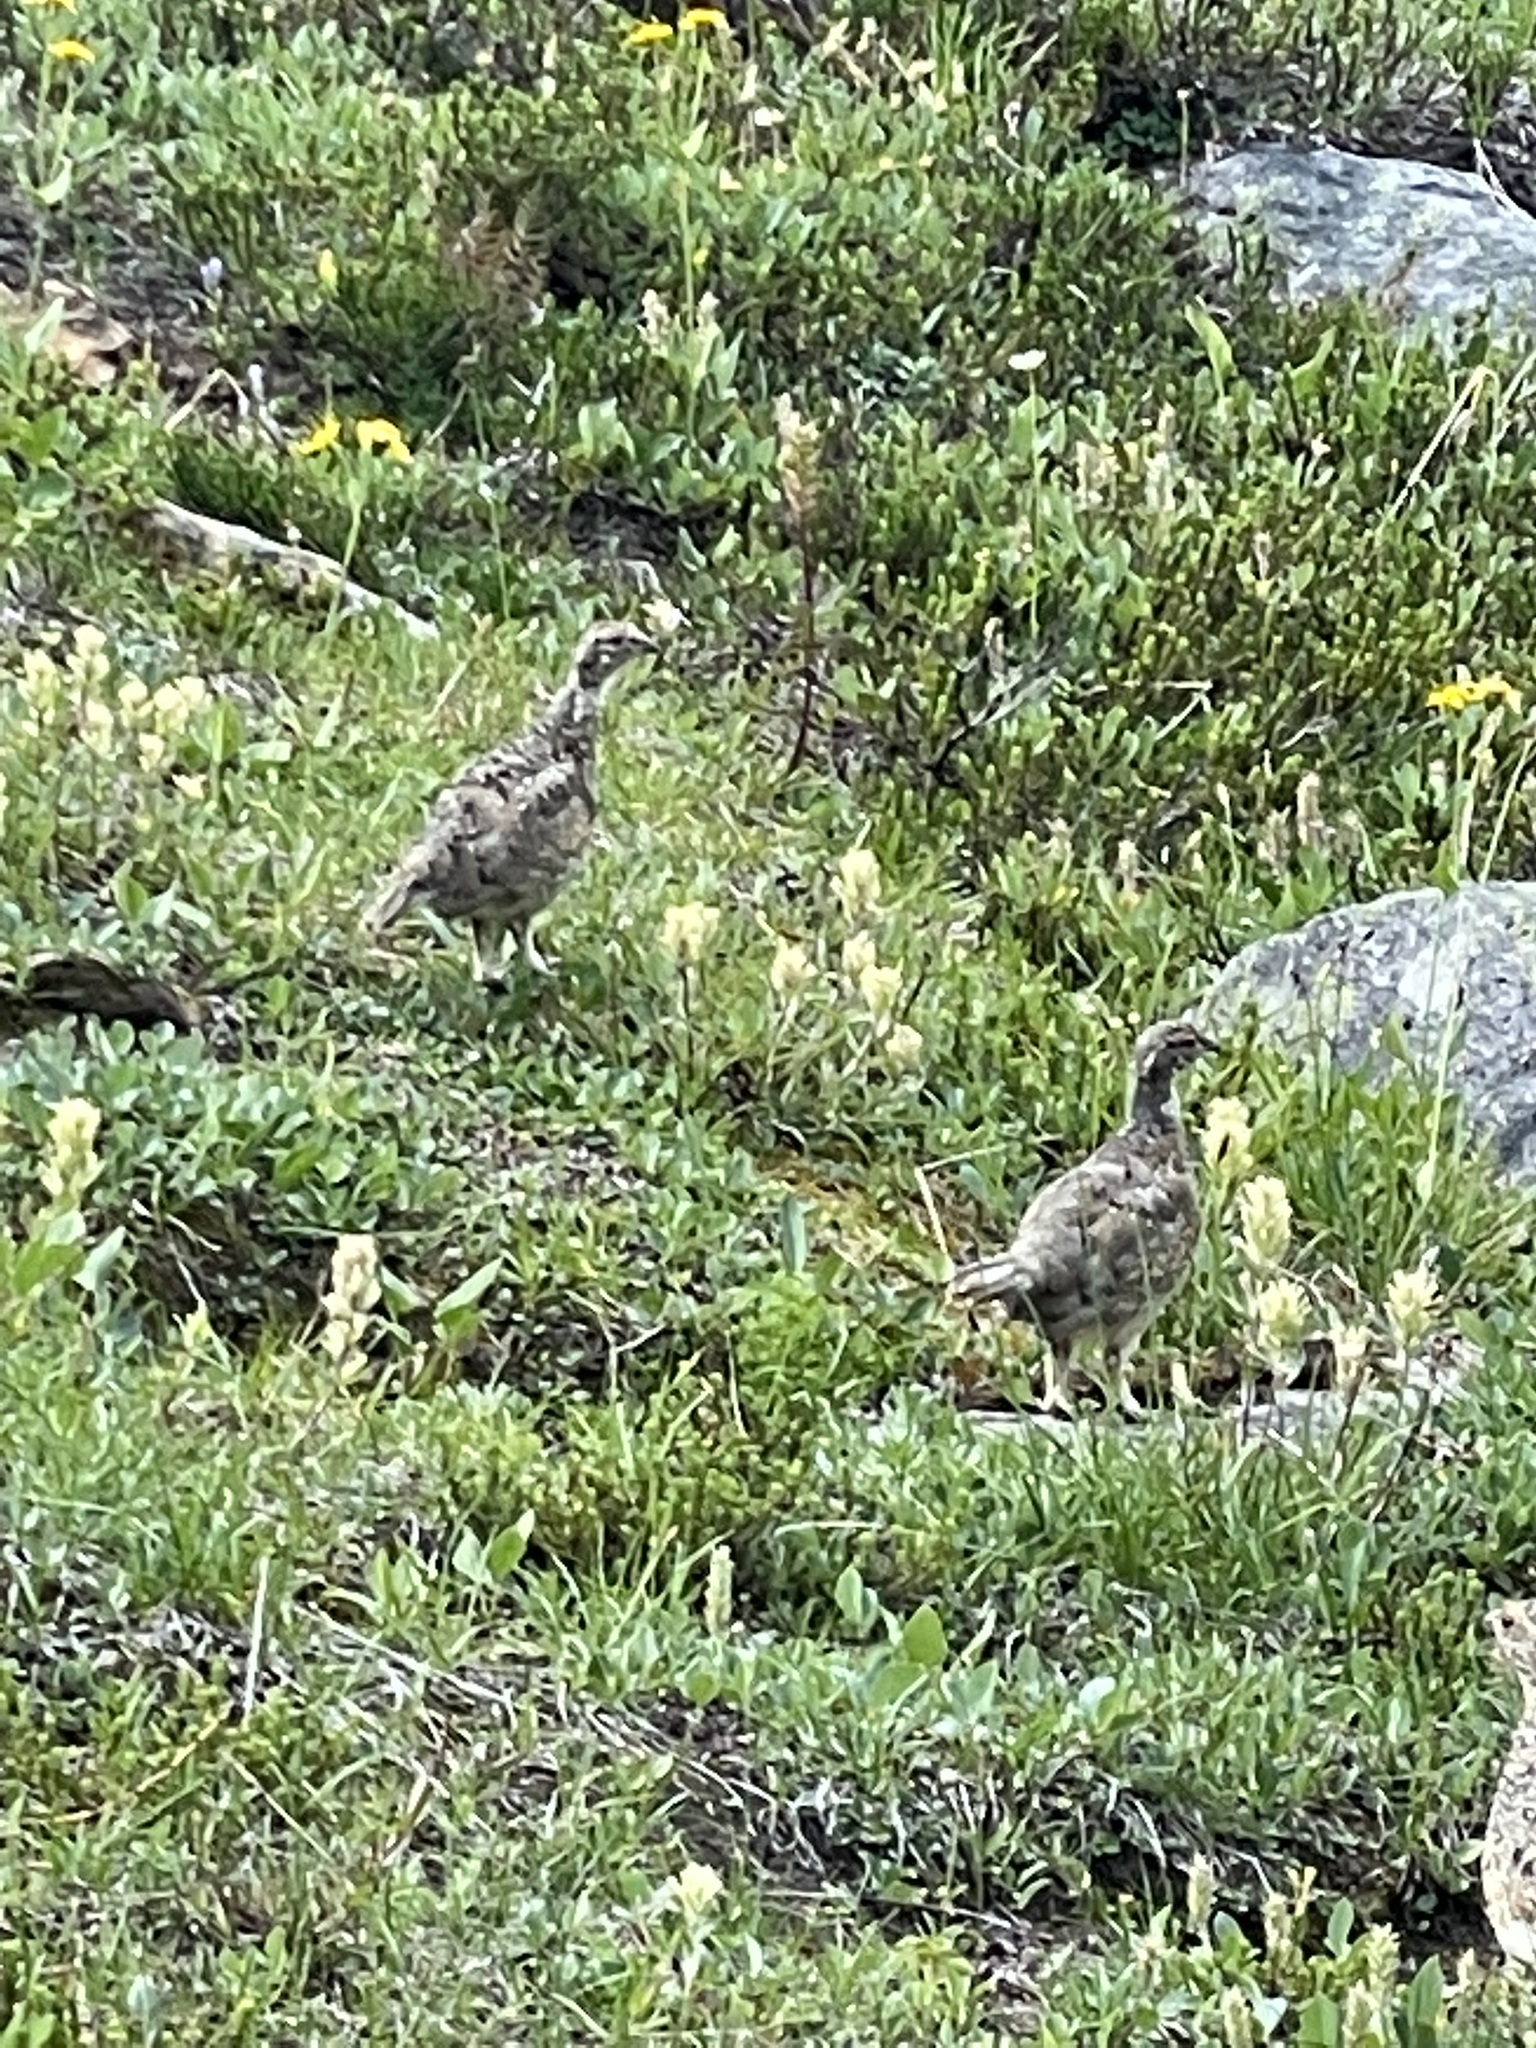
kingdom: Animalia
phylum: Chordata
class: Aves
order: Galliformes
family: Phasianidae
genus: Lagopus
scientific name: Lagopus leucura
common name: White-tailed ptarmigan
